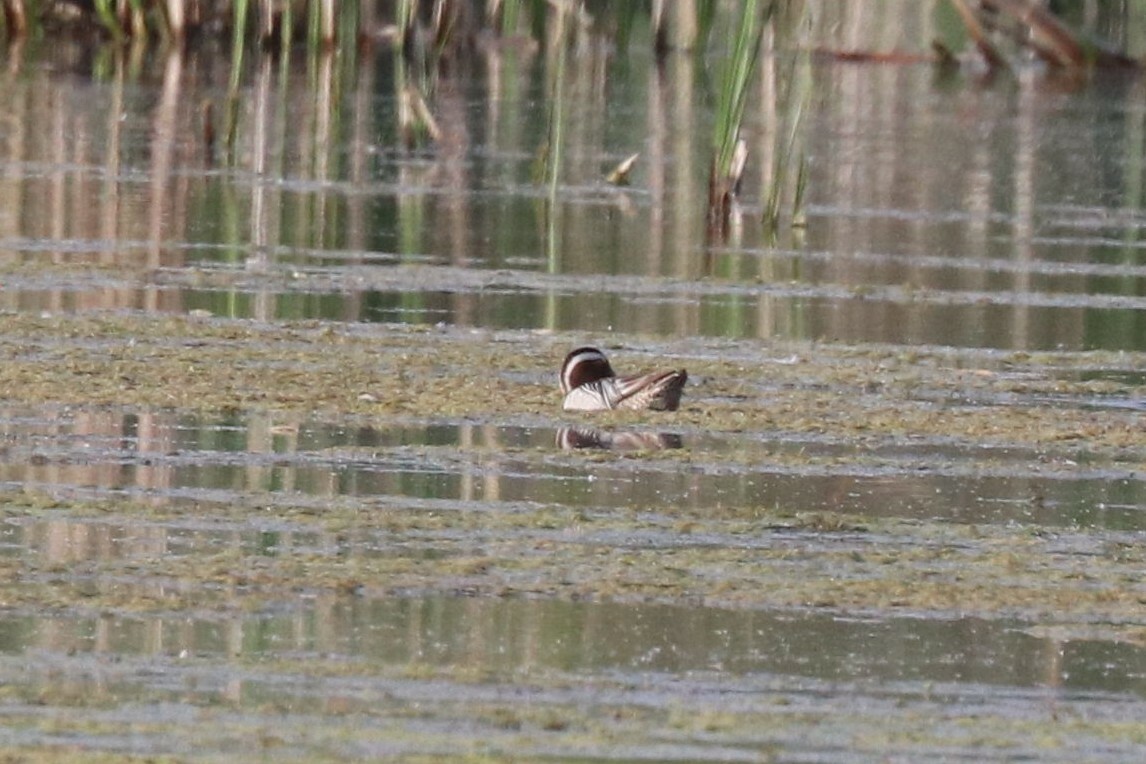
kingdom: Animalia
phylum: Chordata
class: Aves
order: Anseriformes
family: Anatidae
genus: Spatula
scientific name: Spatula querquedula
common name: Garganey
